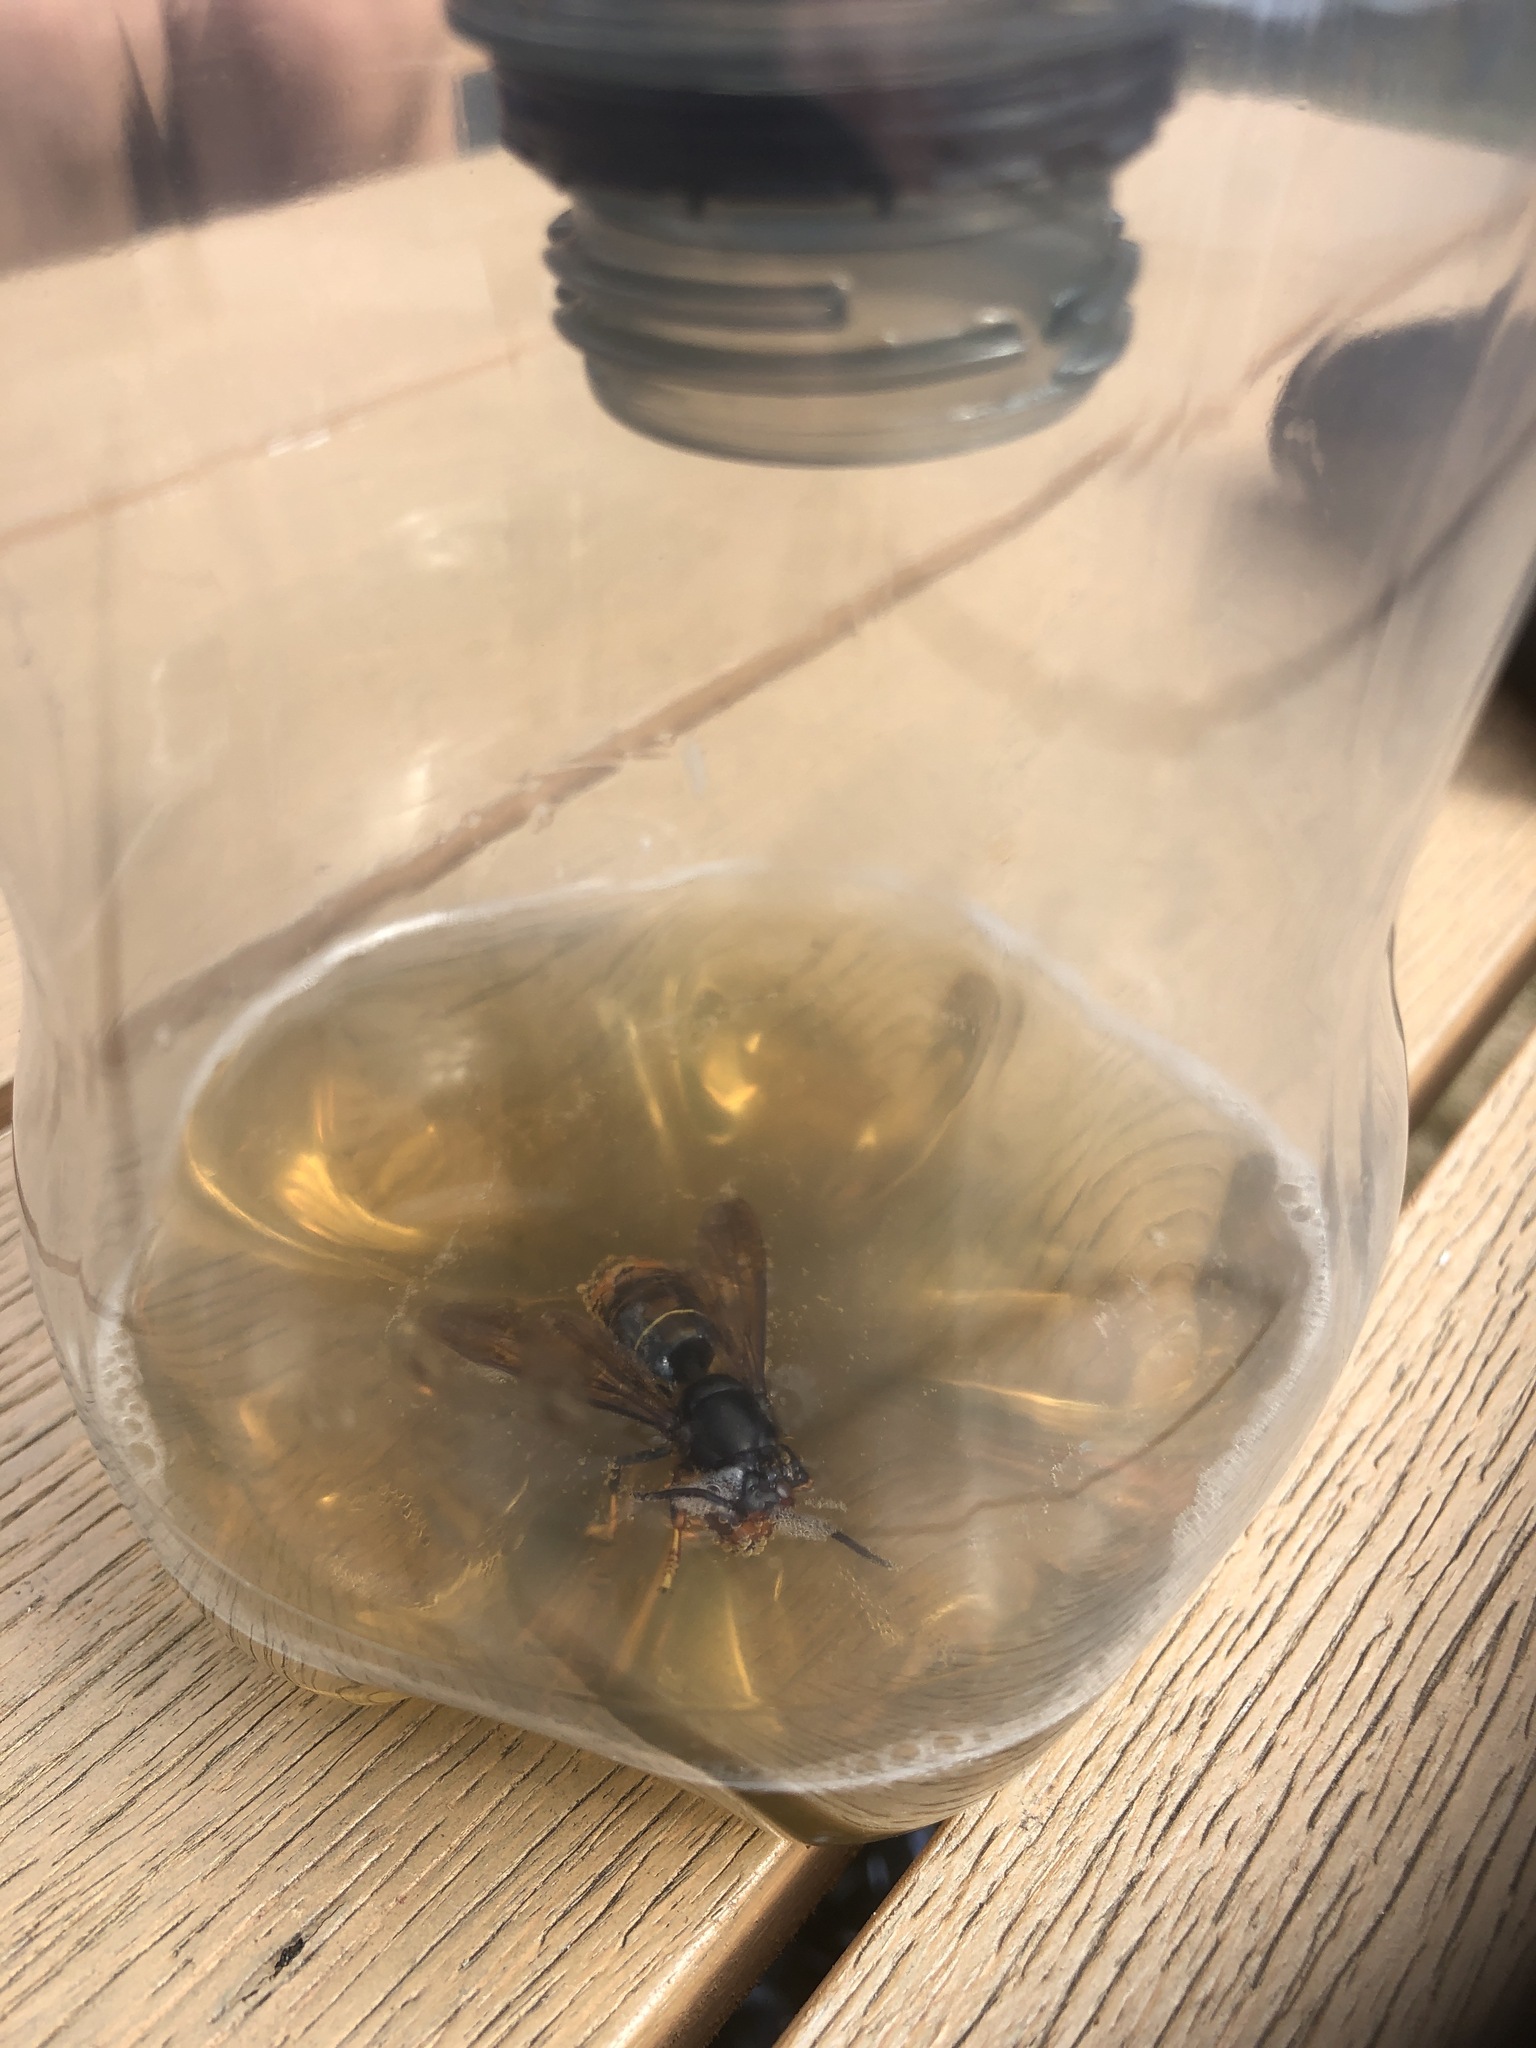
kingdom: Animalia
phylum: Arthropoda
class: Insecta
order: Hymenoptera
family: Vespidae
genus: Vespa
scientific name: Vespa velutina
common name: Asian hornet
